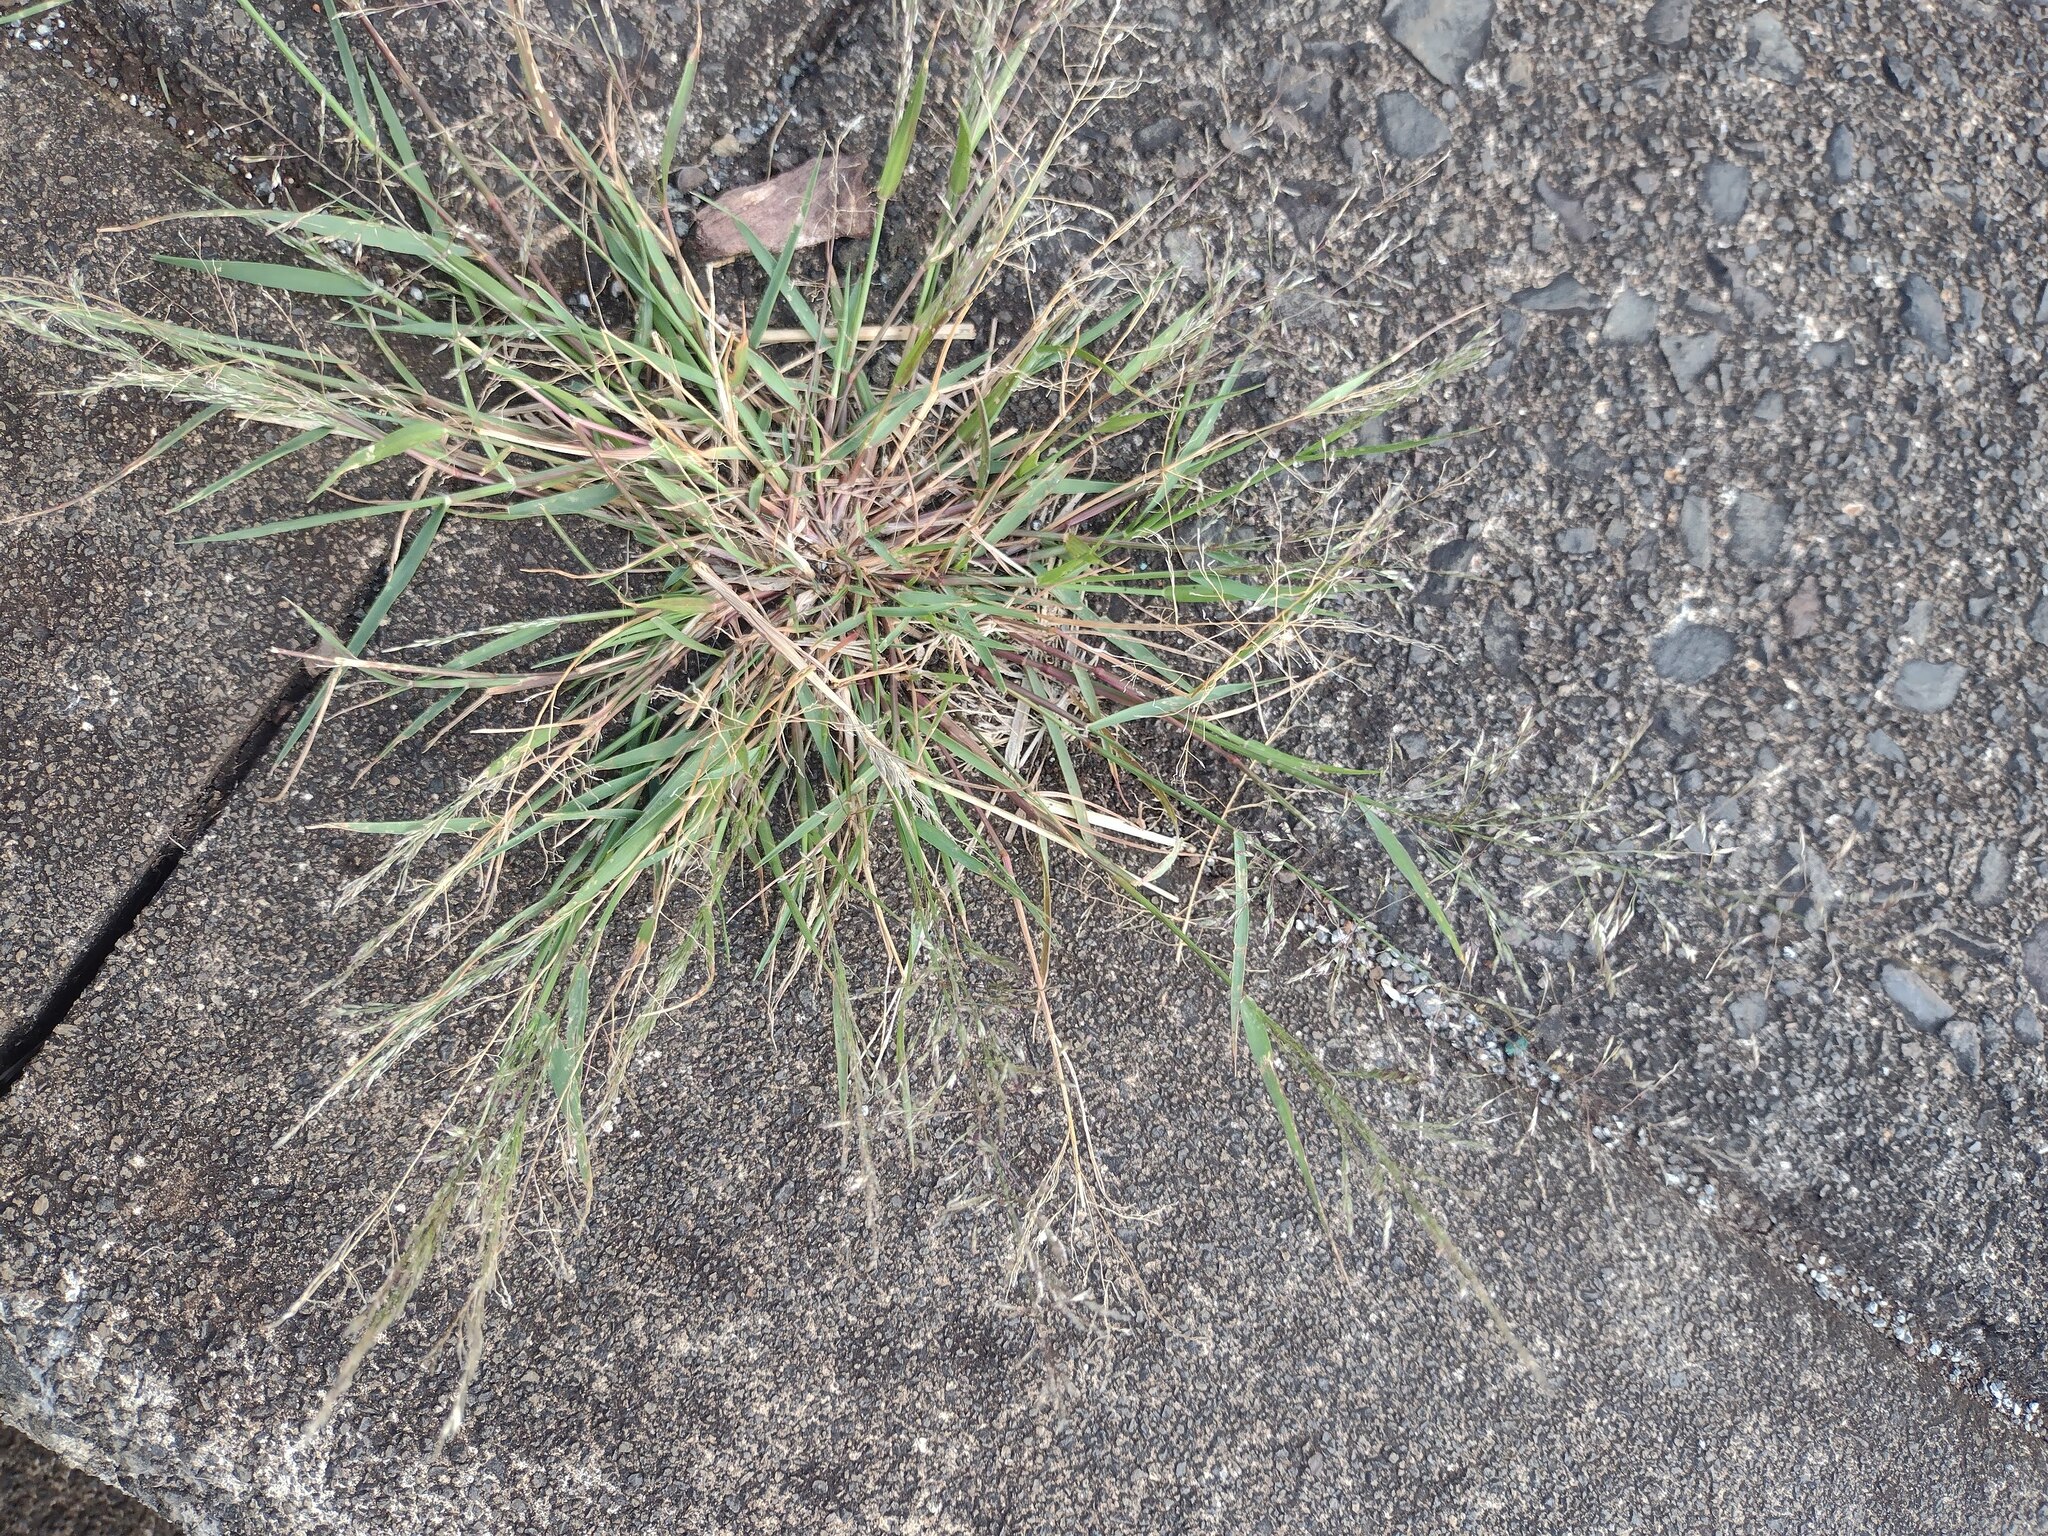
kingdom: Plantae
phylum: Tracheophyta
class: Liliopsida
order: Poales
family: Poaceae
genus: Eragrostis
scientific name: Eragrostis pilosa
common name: Indian lovegrass
